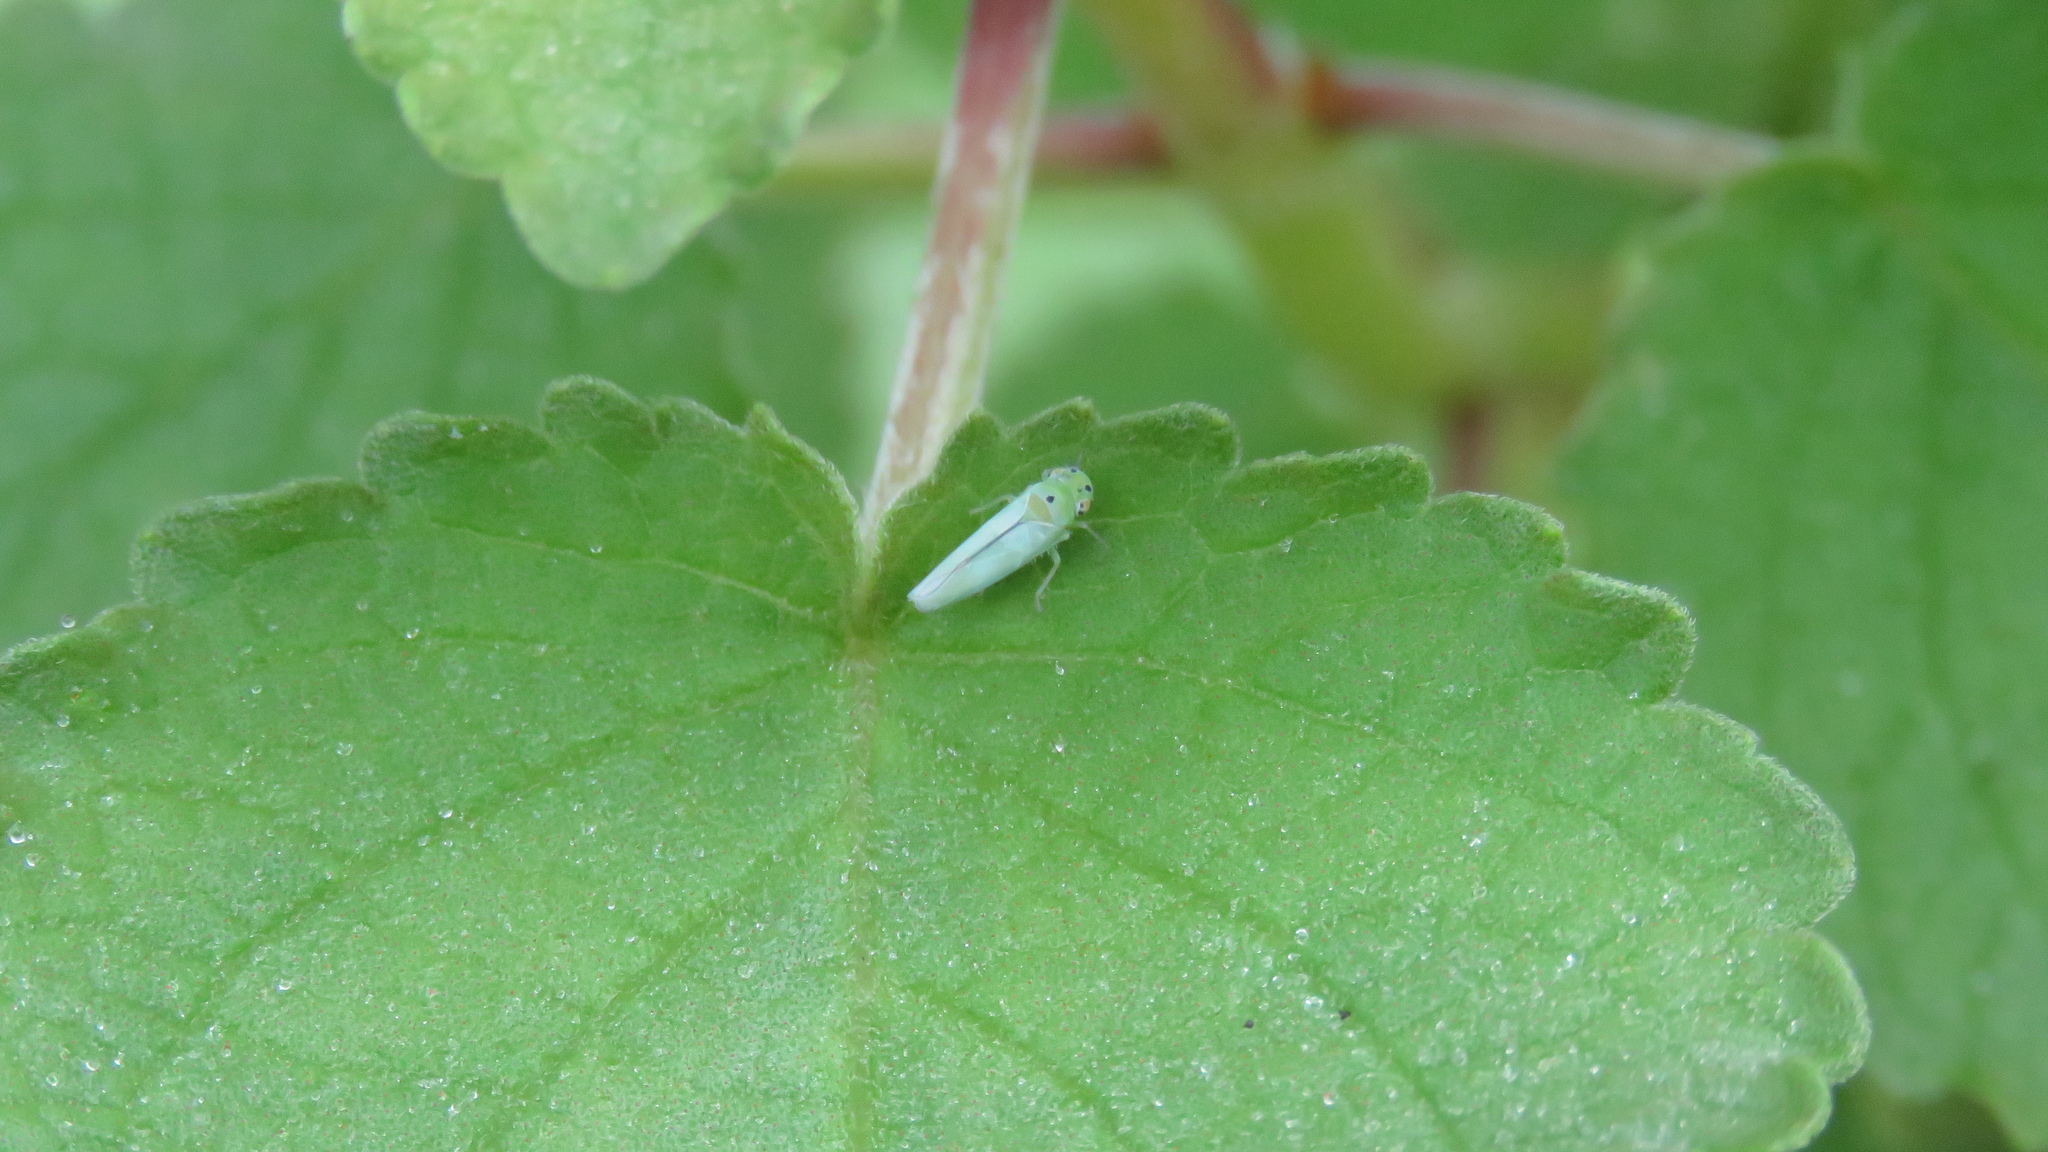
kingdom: Animalia
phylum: Arthropoda
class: Insecta
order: Hemiptera
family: Cicadellidae
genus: Kolla
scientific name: Kolla ceylonica
